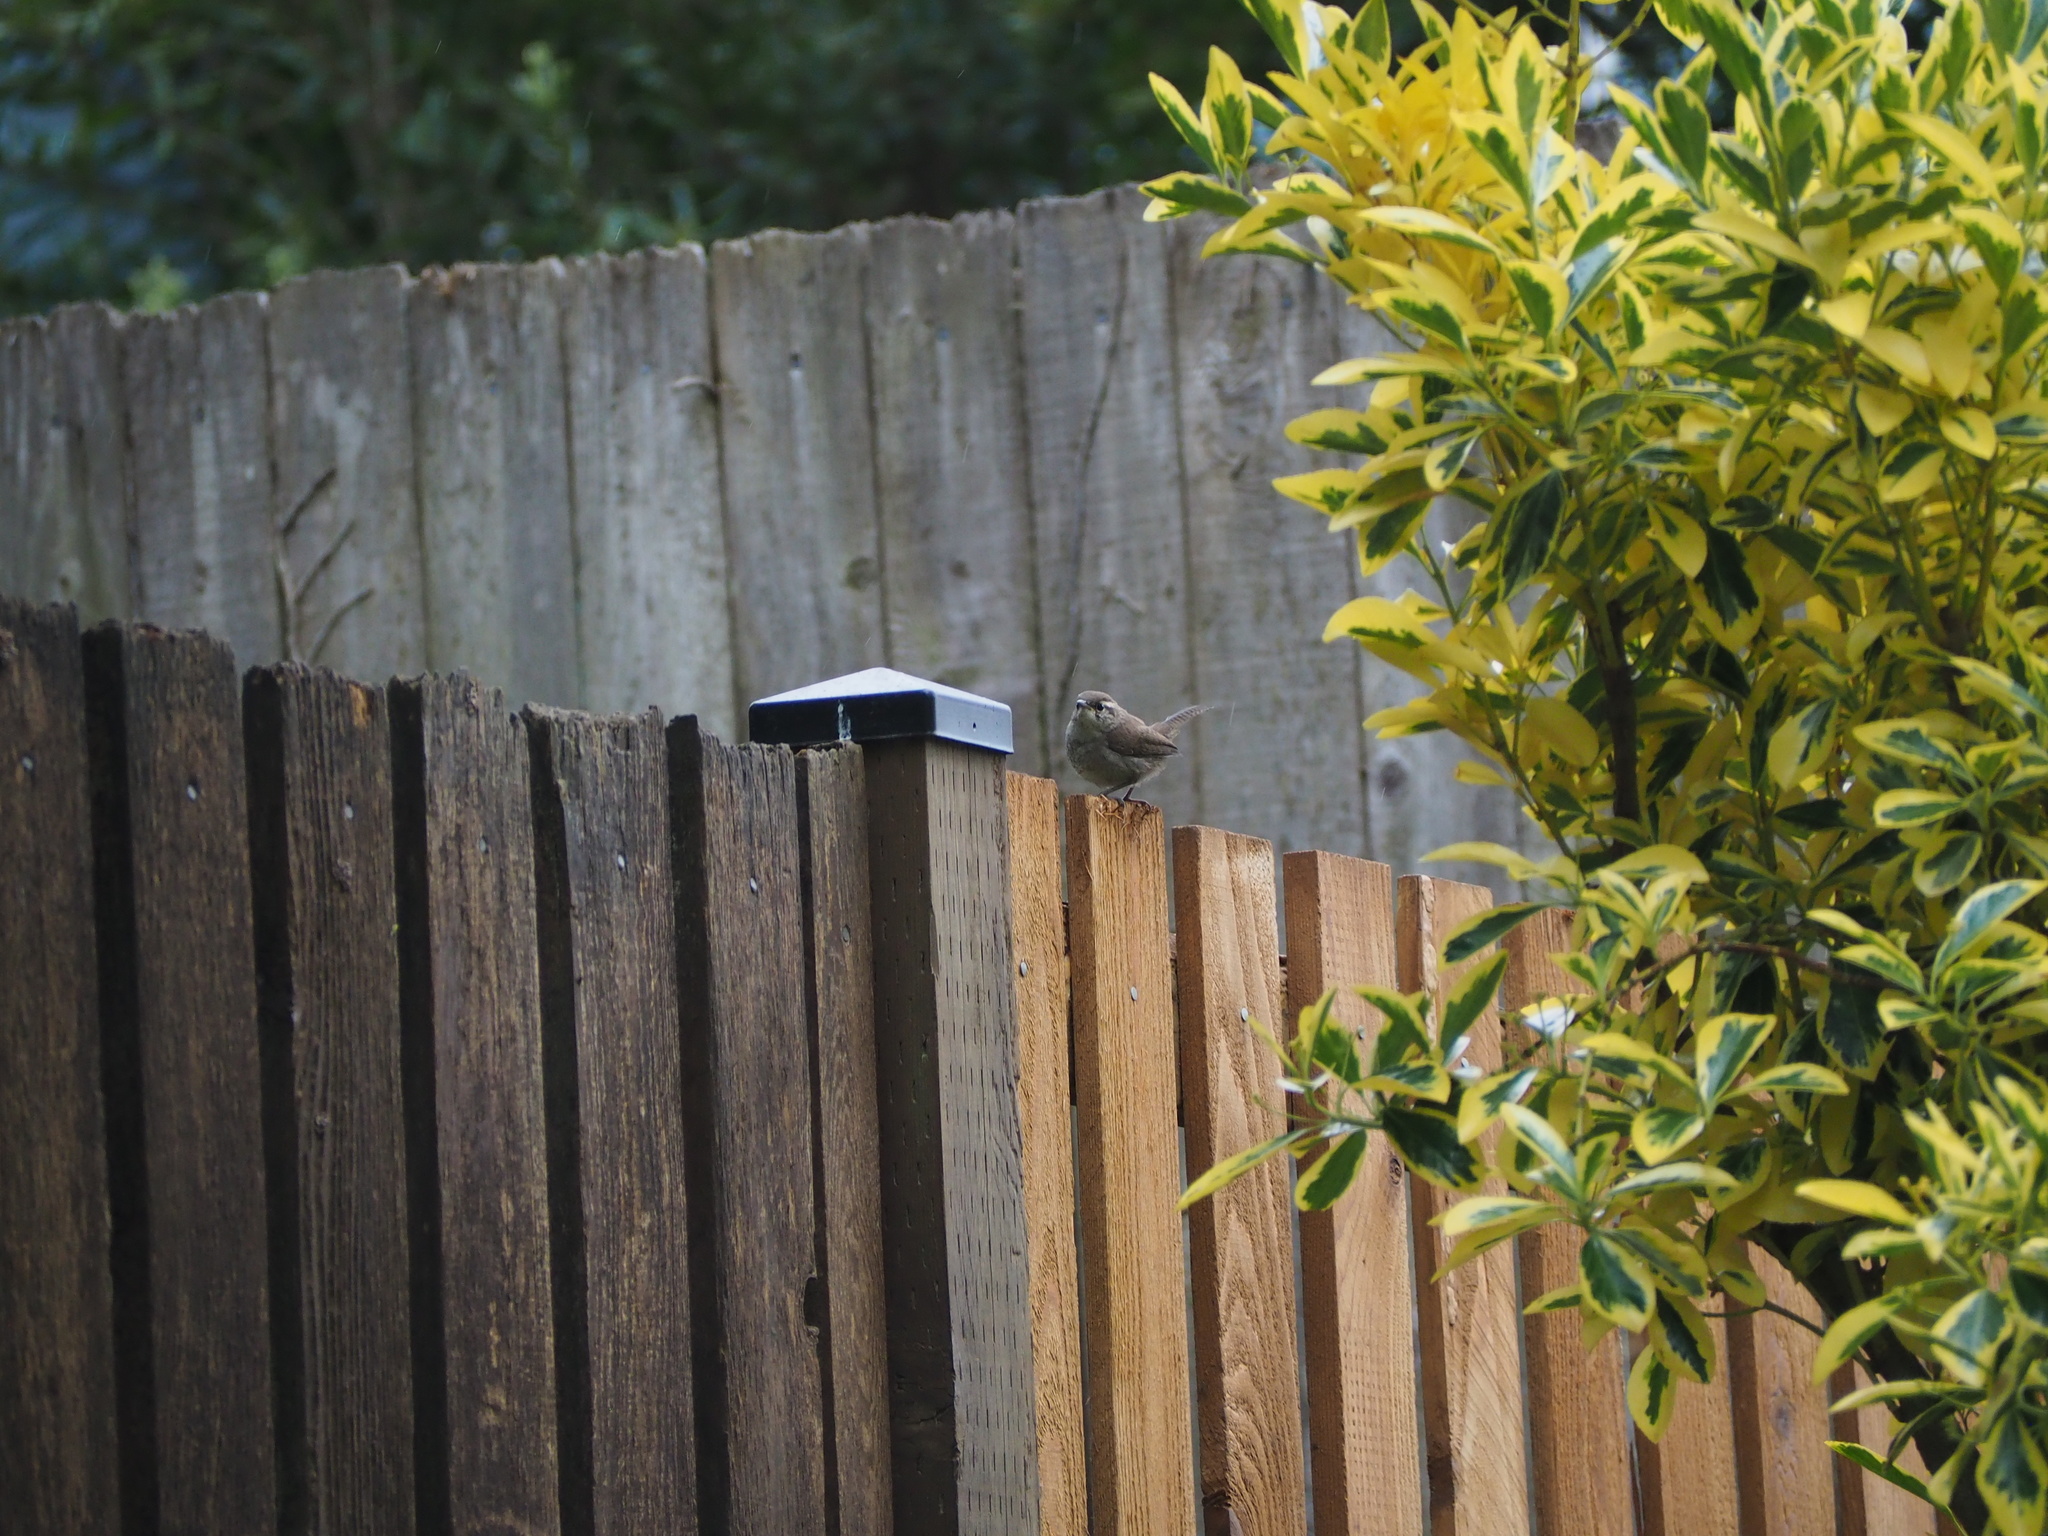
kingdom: Animalia
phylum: Chordata
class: Aves
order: Passeriformes
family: Troglodytidae
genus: Thryomanes
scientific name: Thryomanes bewickii
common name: Bewick's wren
